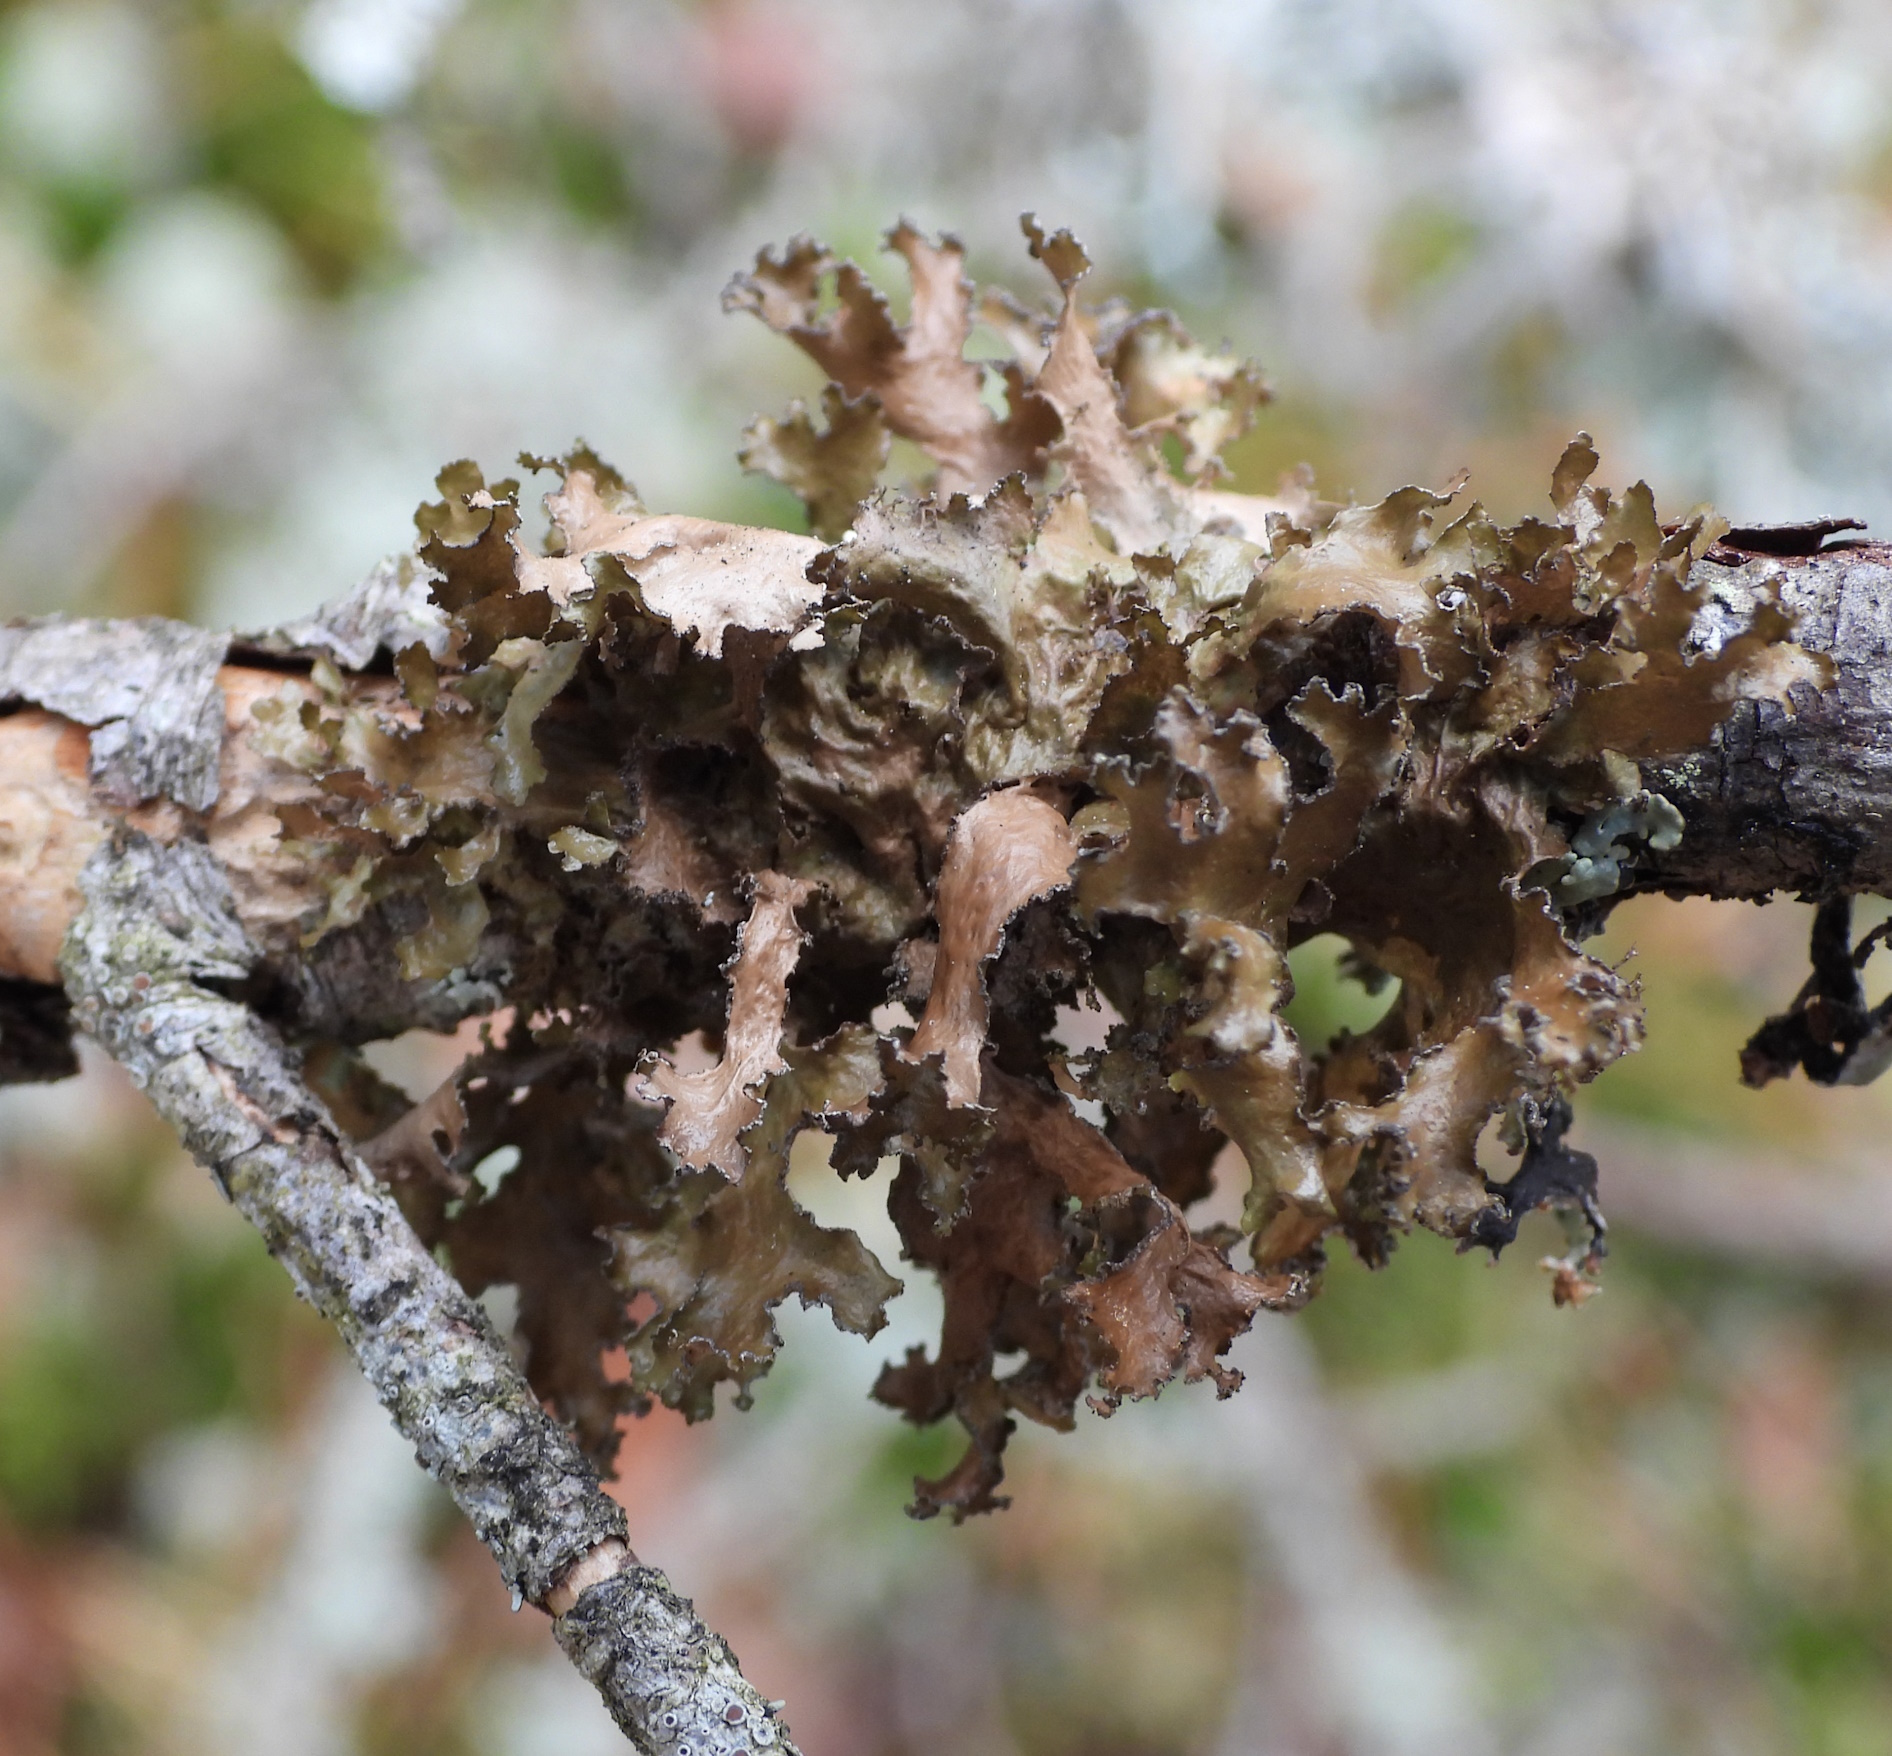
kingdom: Fungi
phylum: Ascomycota
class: Lecanoromycetes
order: Lecanorales
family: Parmeliaceae
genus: Nephromopsis
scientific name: Nephromopsis chlorophylla
